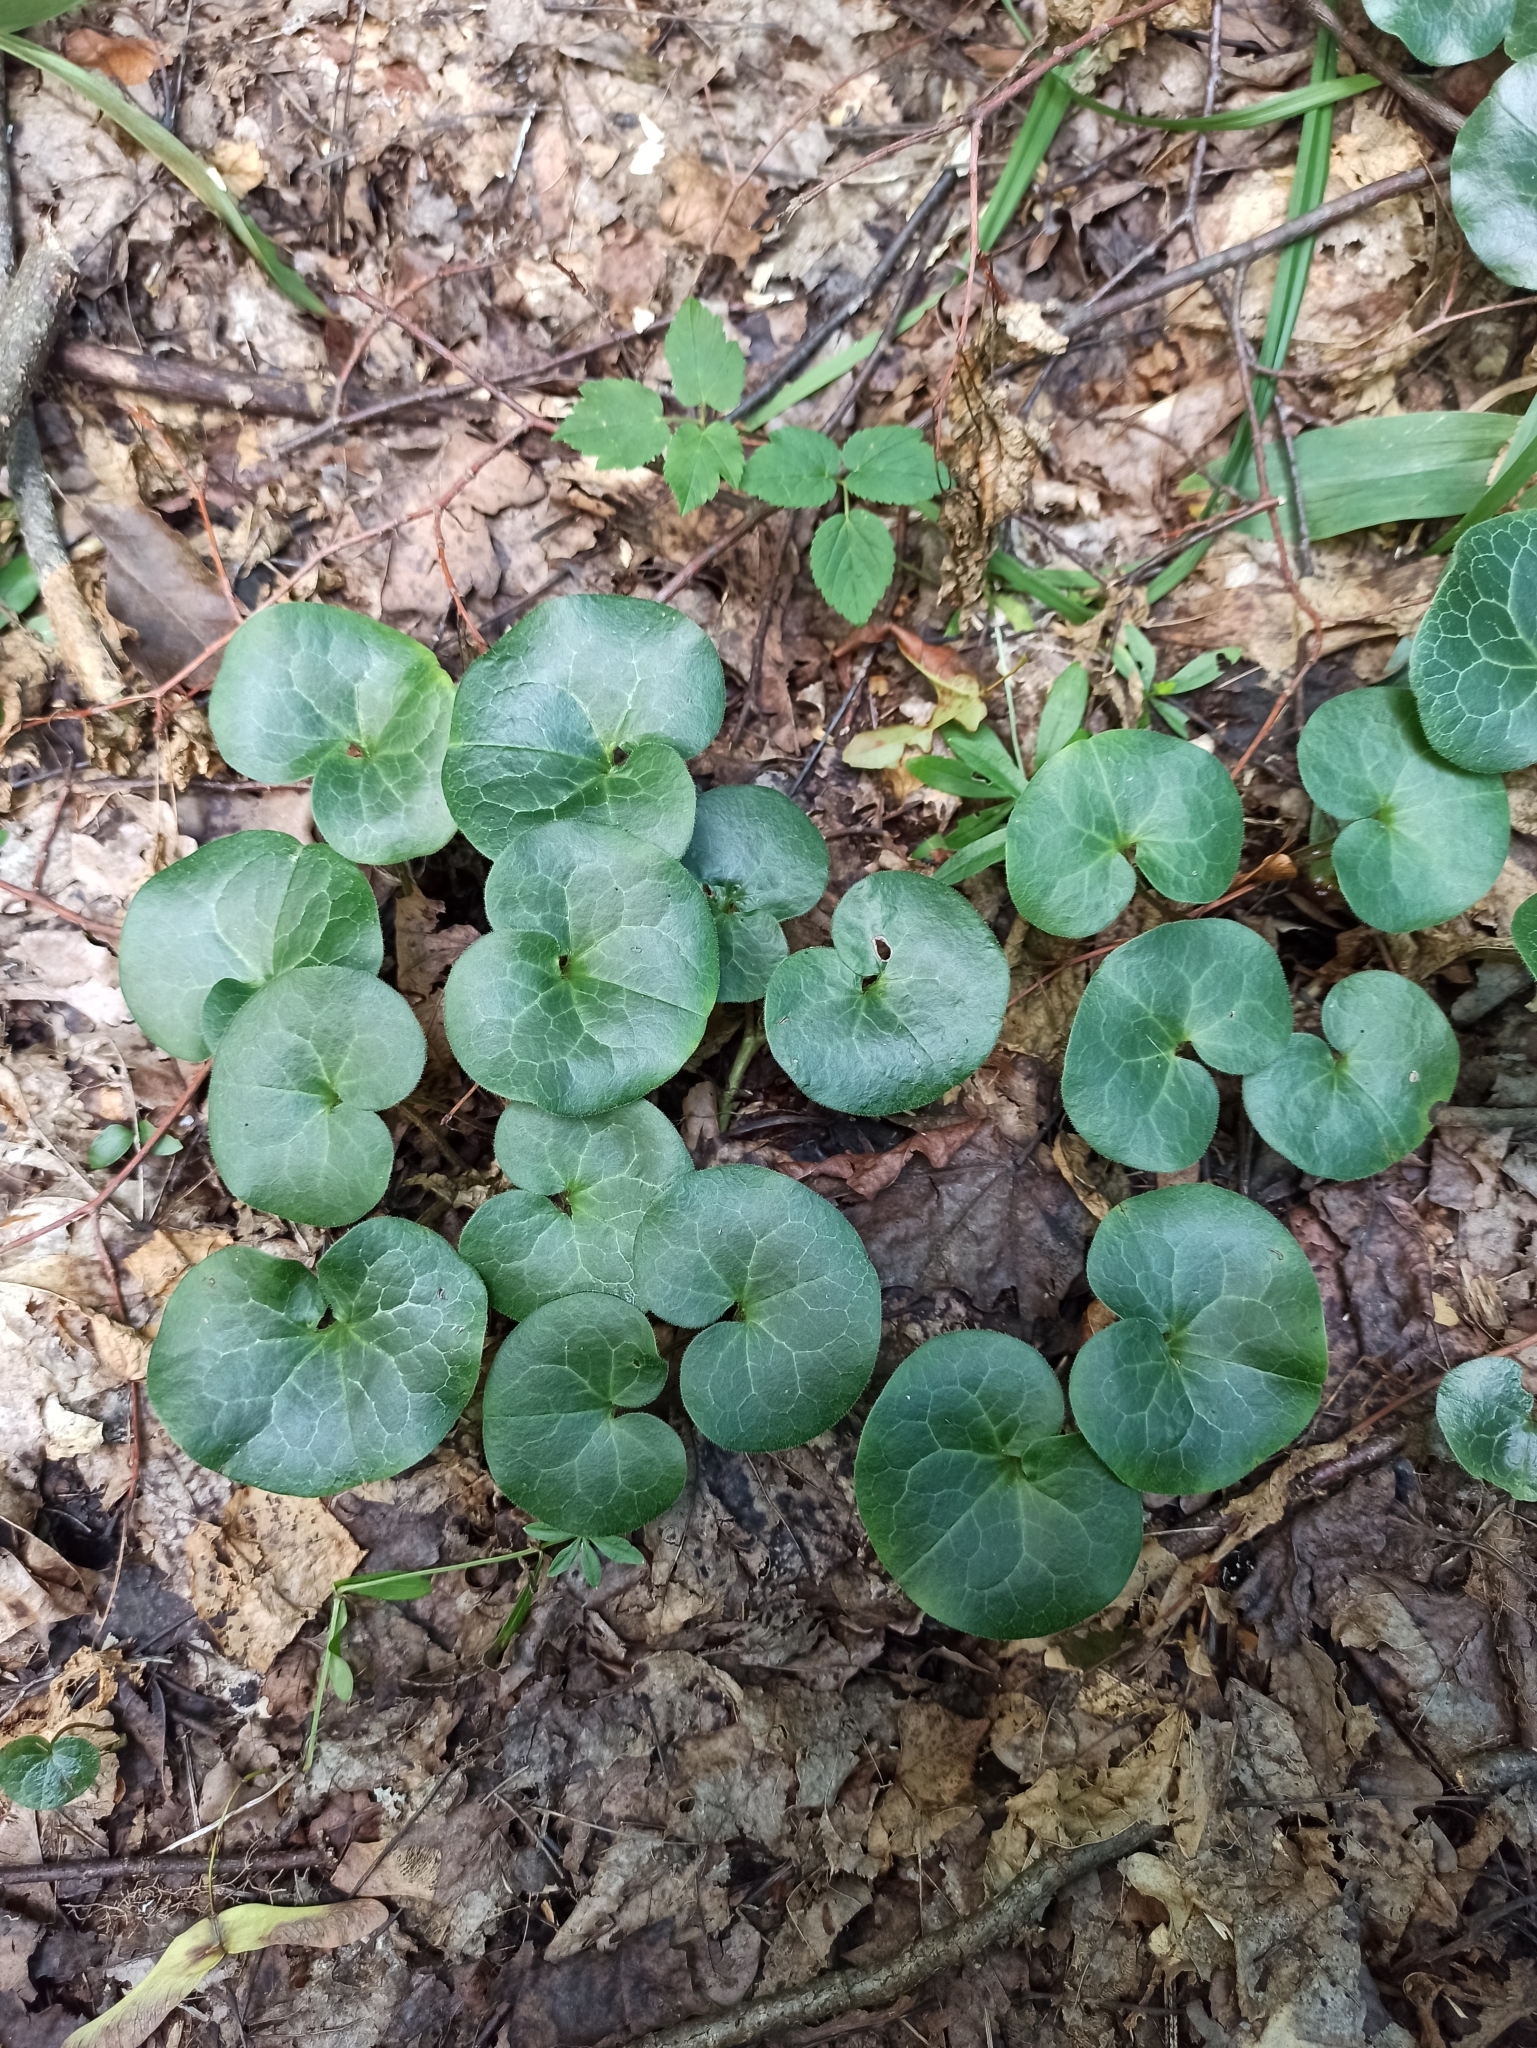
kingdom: Plantae
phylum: Tracheophyta
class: Magnoliopsida
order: Piperales
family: Aristolochiaceae
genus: Asarum
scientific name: Asarum europaeum
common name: Asarabacca
